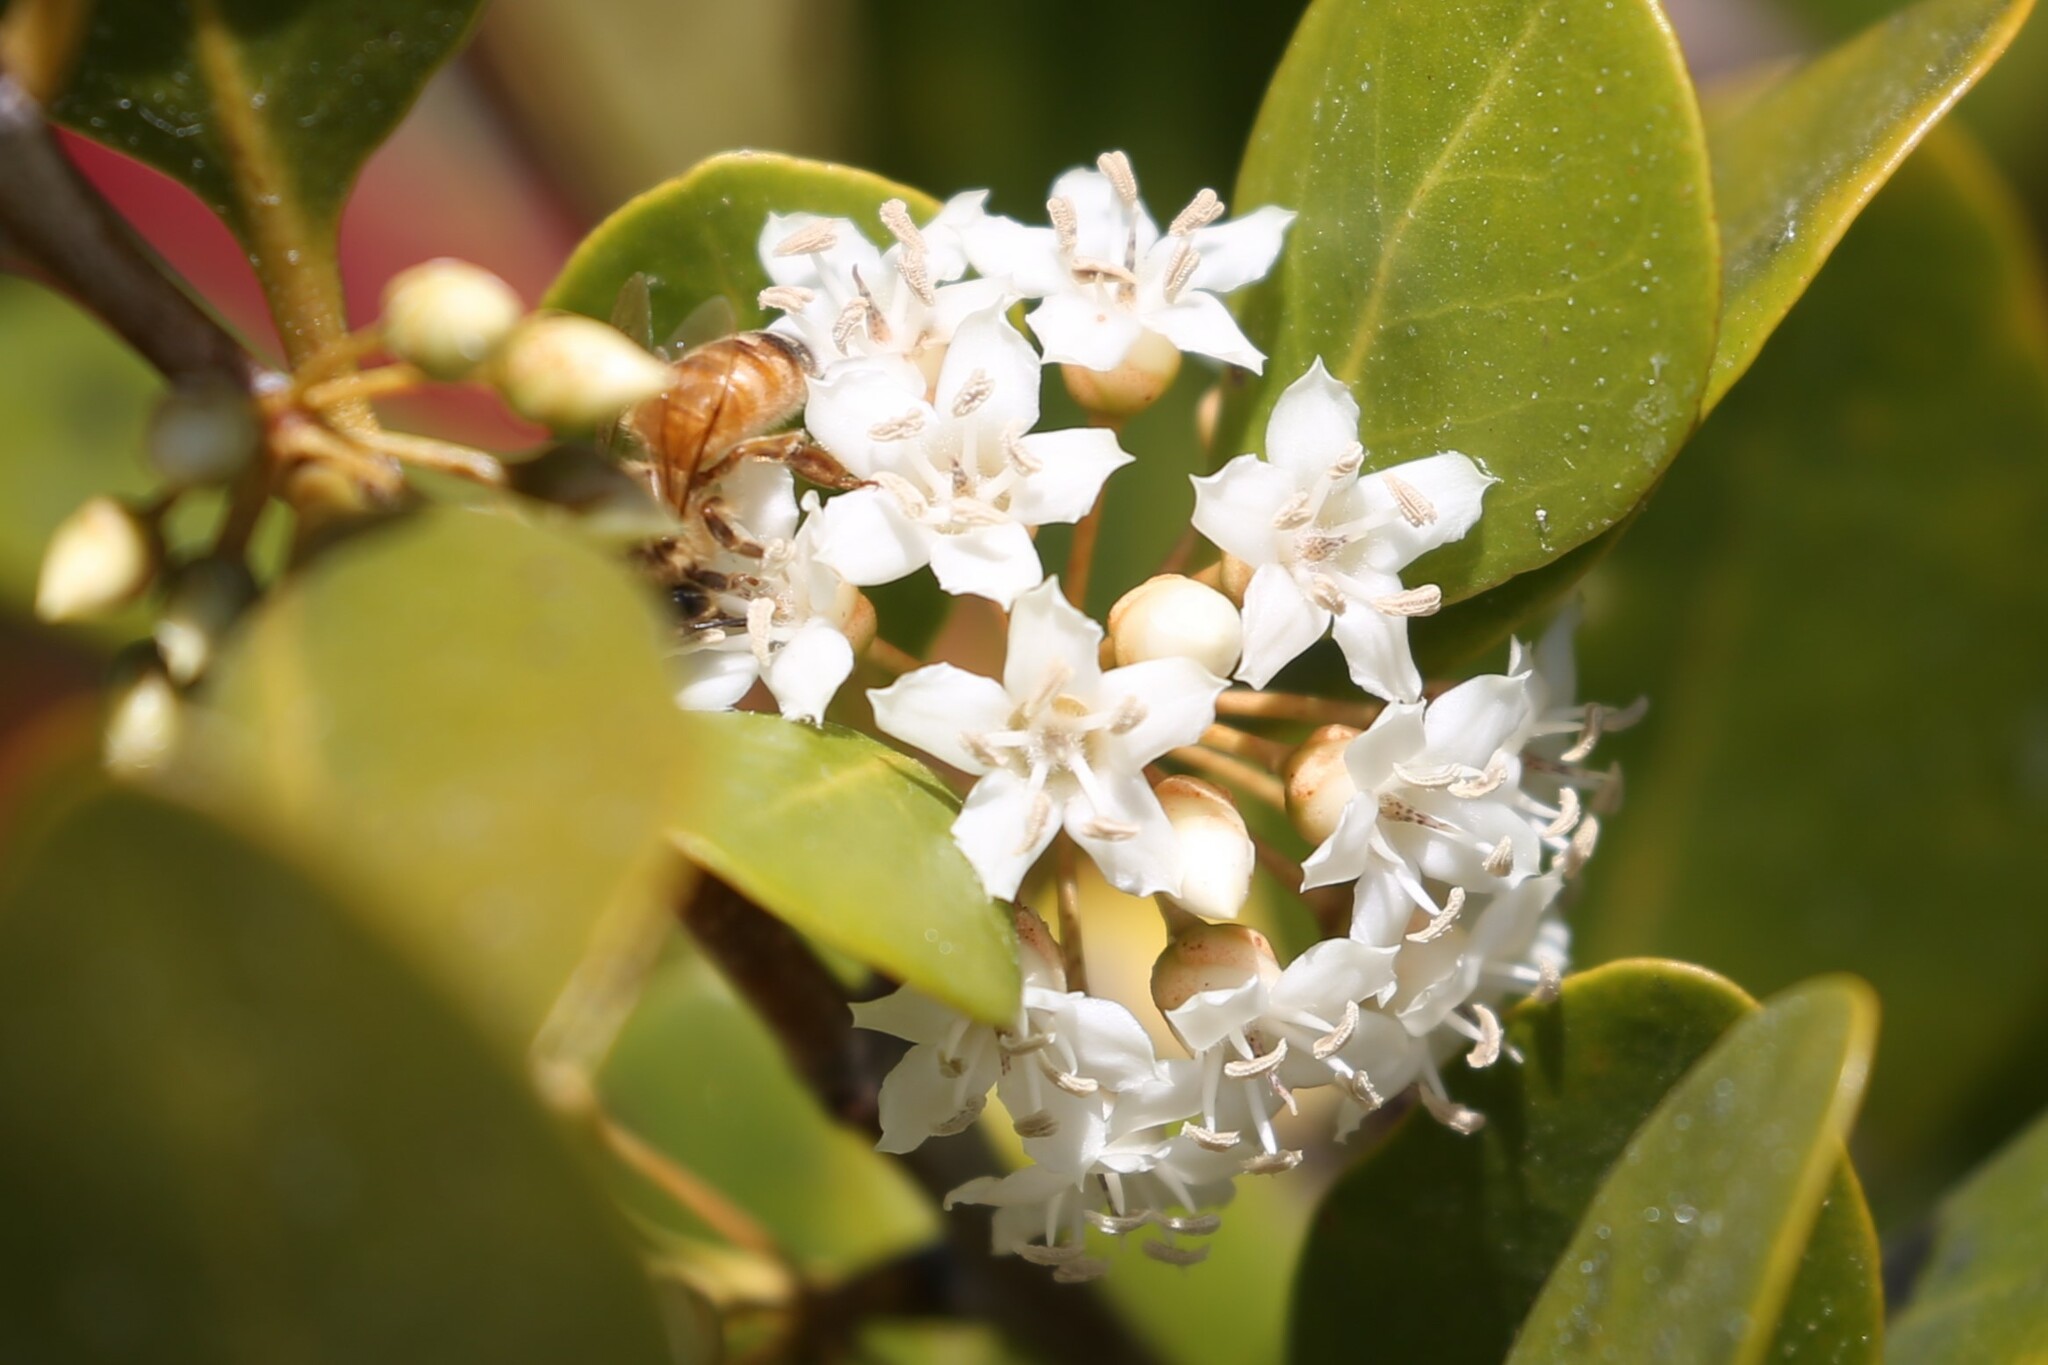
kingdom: Animalia
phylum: Arthropoda
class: Insecta
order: Hymenoptera
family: Apidae
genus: Apis
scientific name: Apis mellifera
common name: Honey bee
